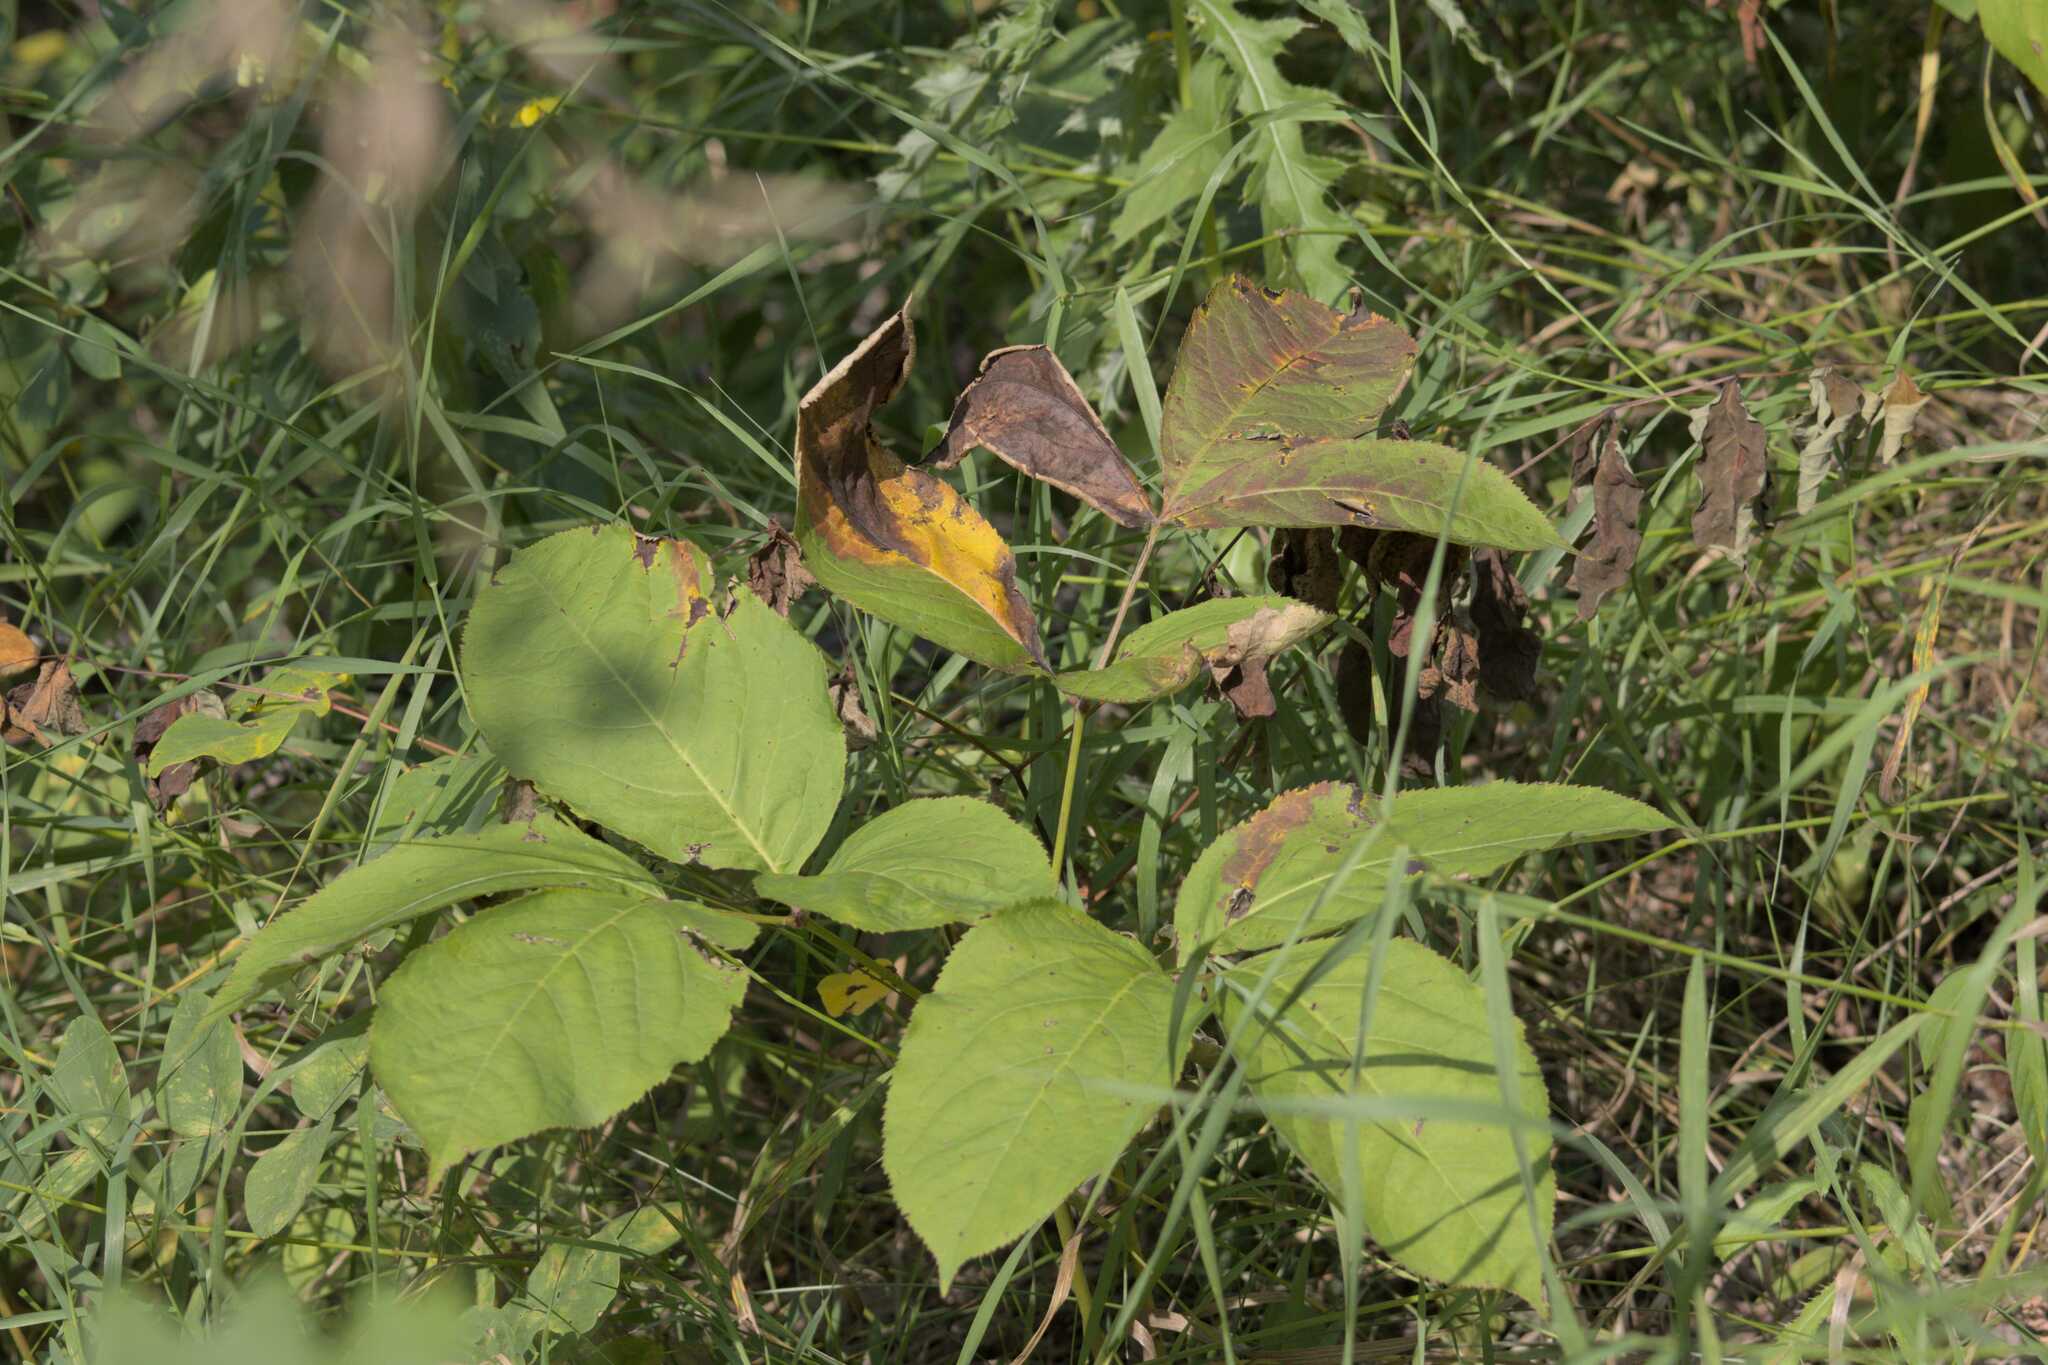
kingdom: Plantae
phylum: Tracheophyta
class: Magnoliopsida
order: Apiales
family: Araliaceae
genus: Aralia
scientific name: Aralia nudicaulis
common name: Wild sarsaparilla
